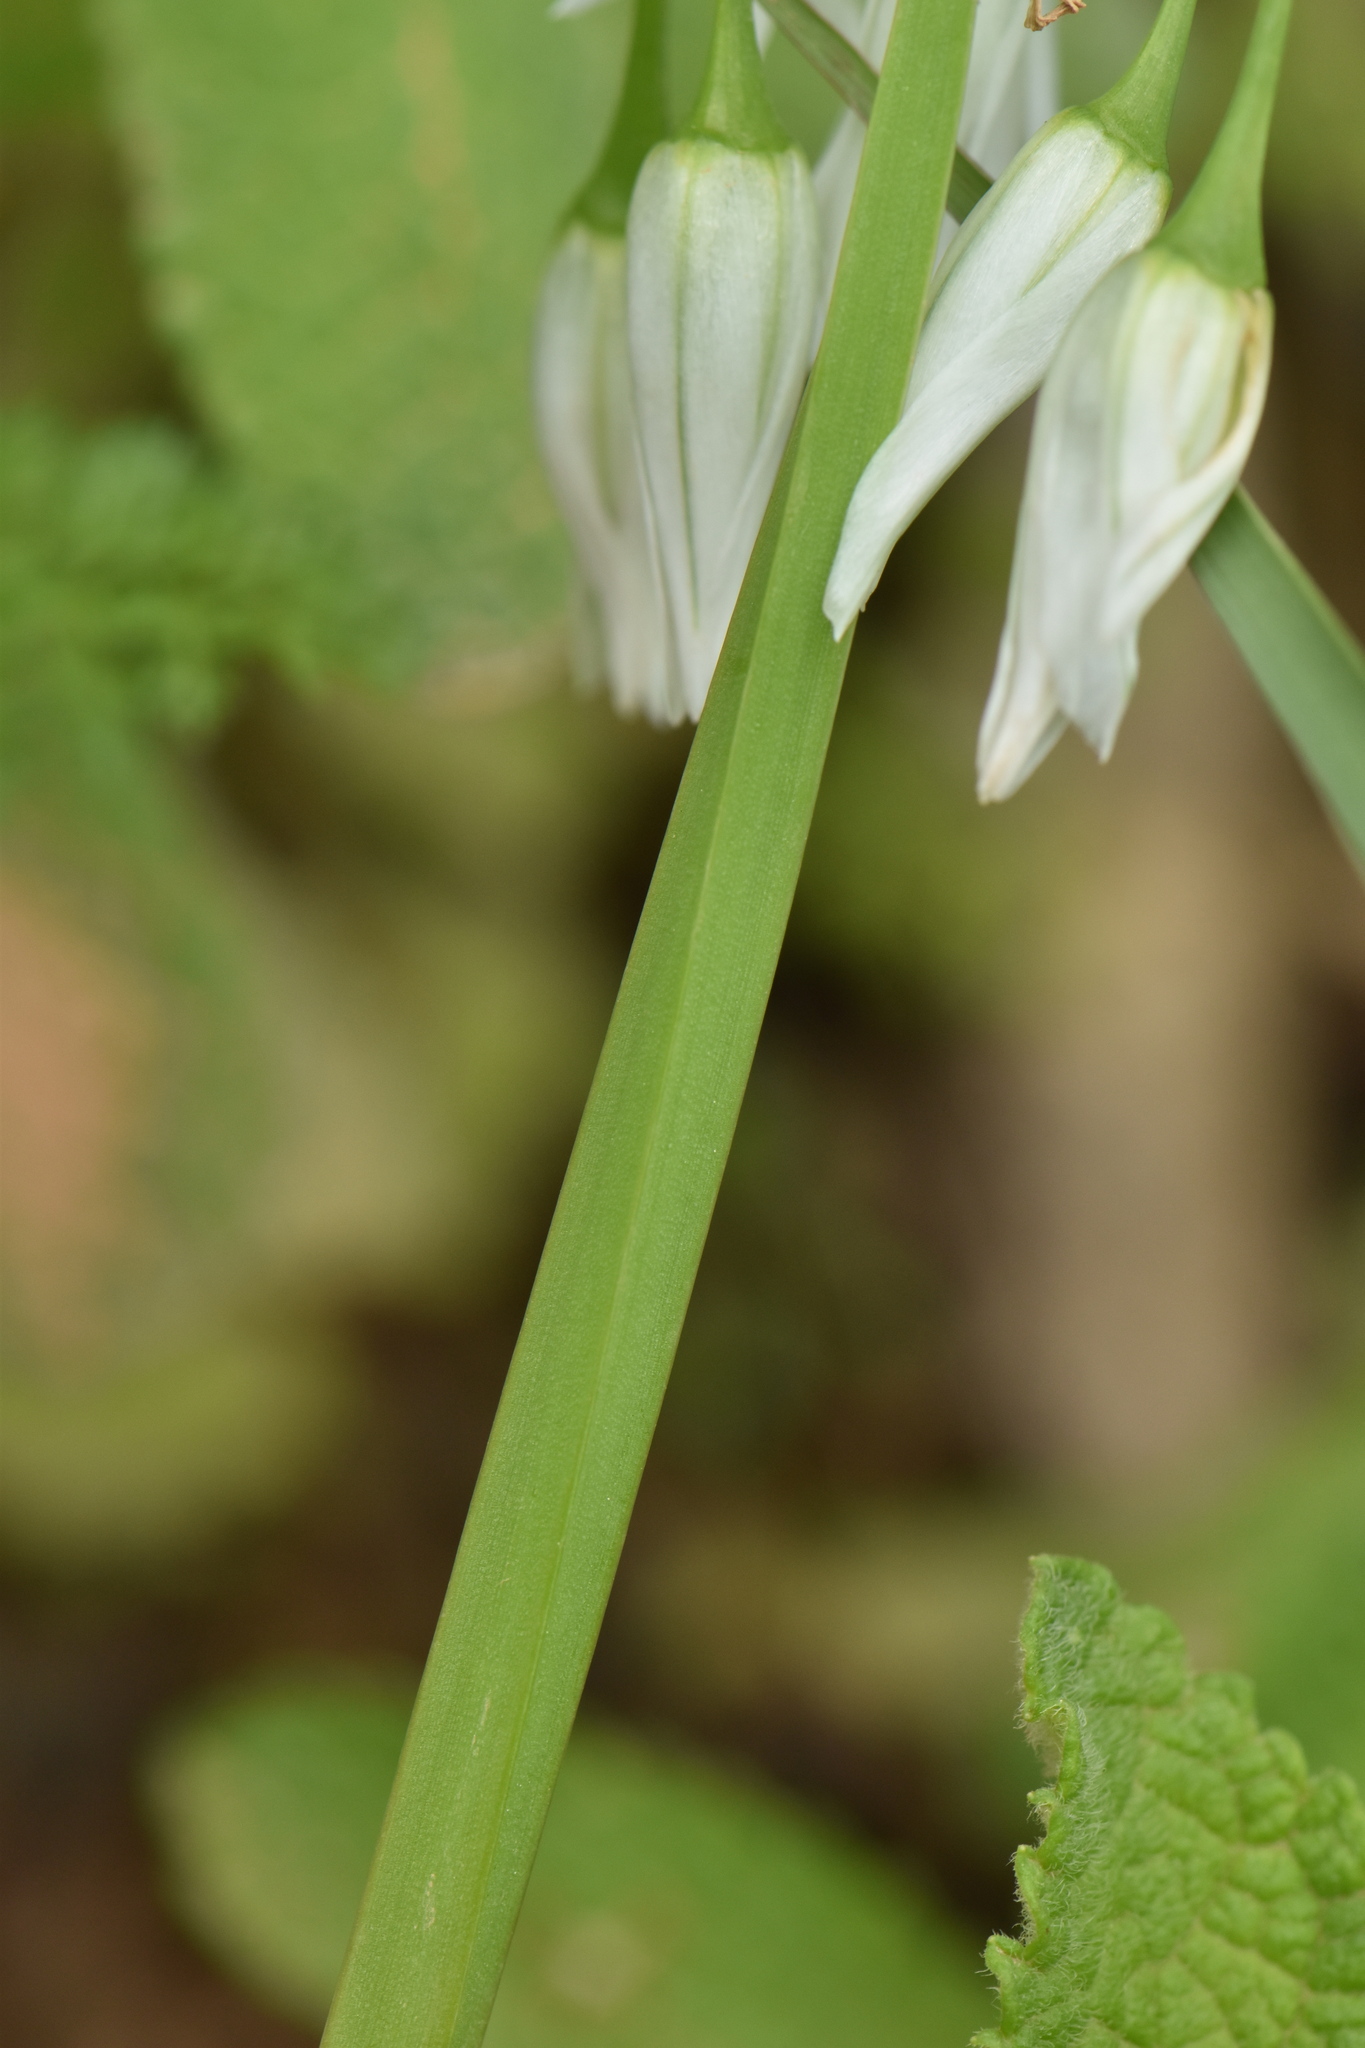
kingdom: Plantae
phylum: Tracheophyta
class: Liliopsida
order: Asparagales
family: Amaryllidaceae
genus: Allium
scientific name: Allium triquetrum
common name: Three-cornered garlic
